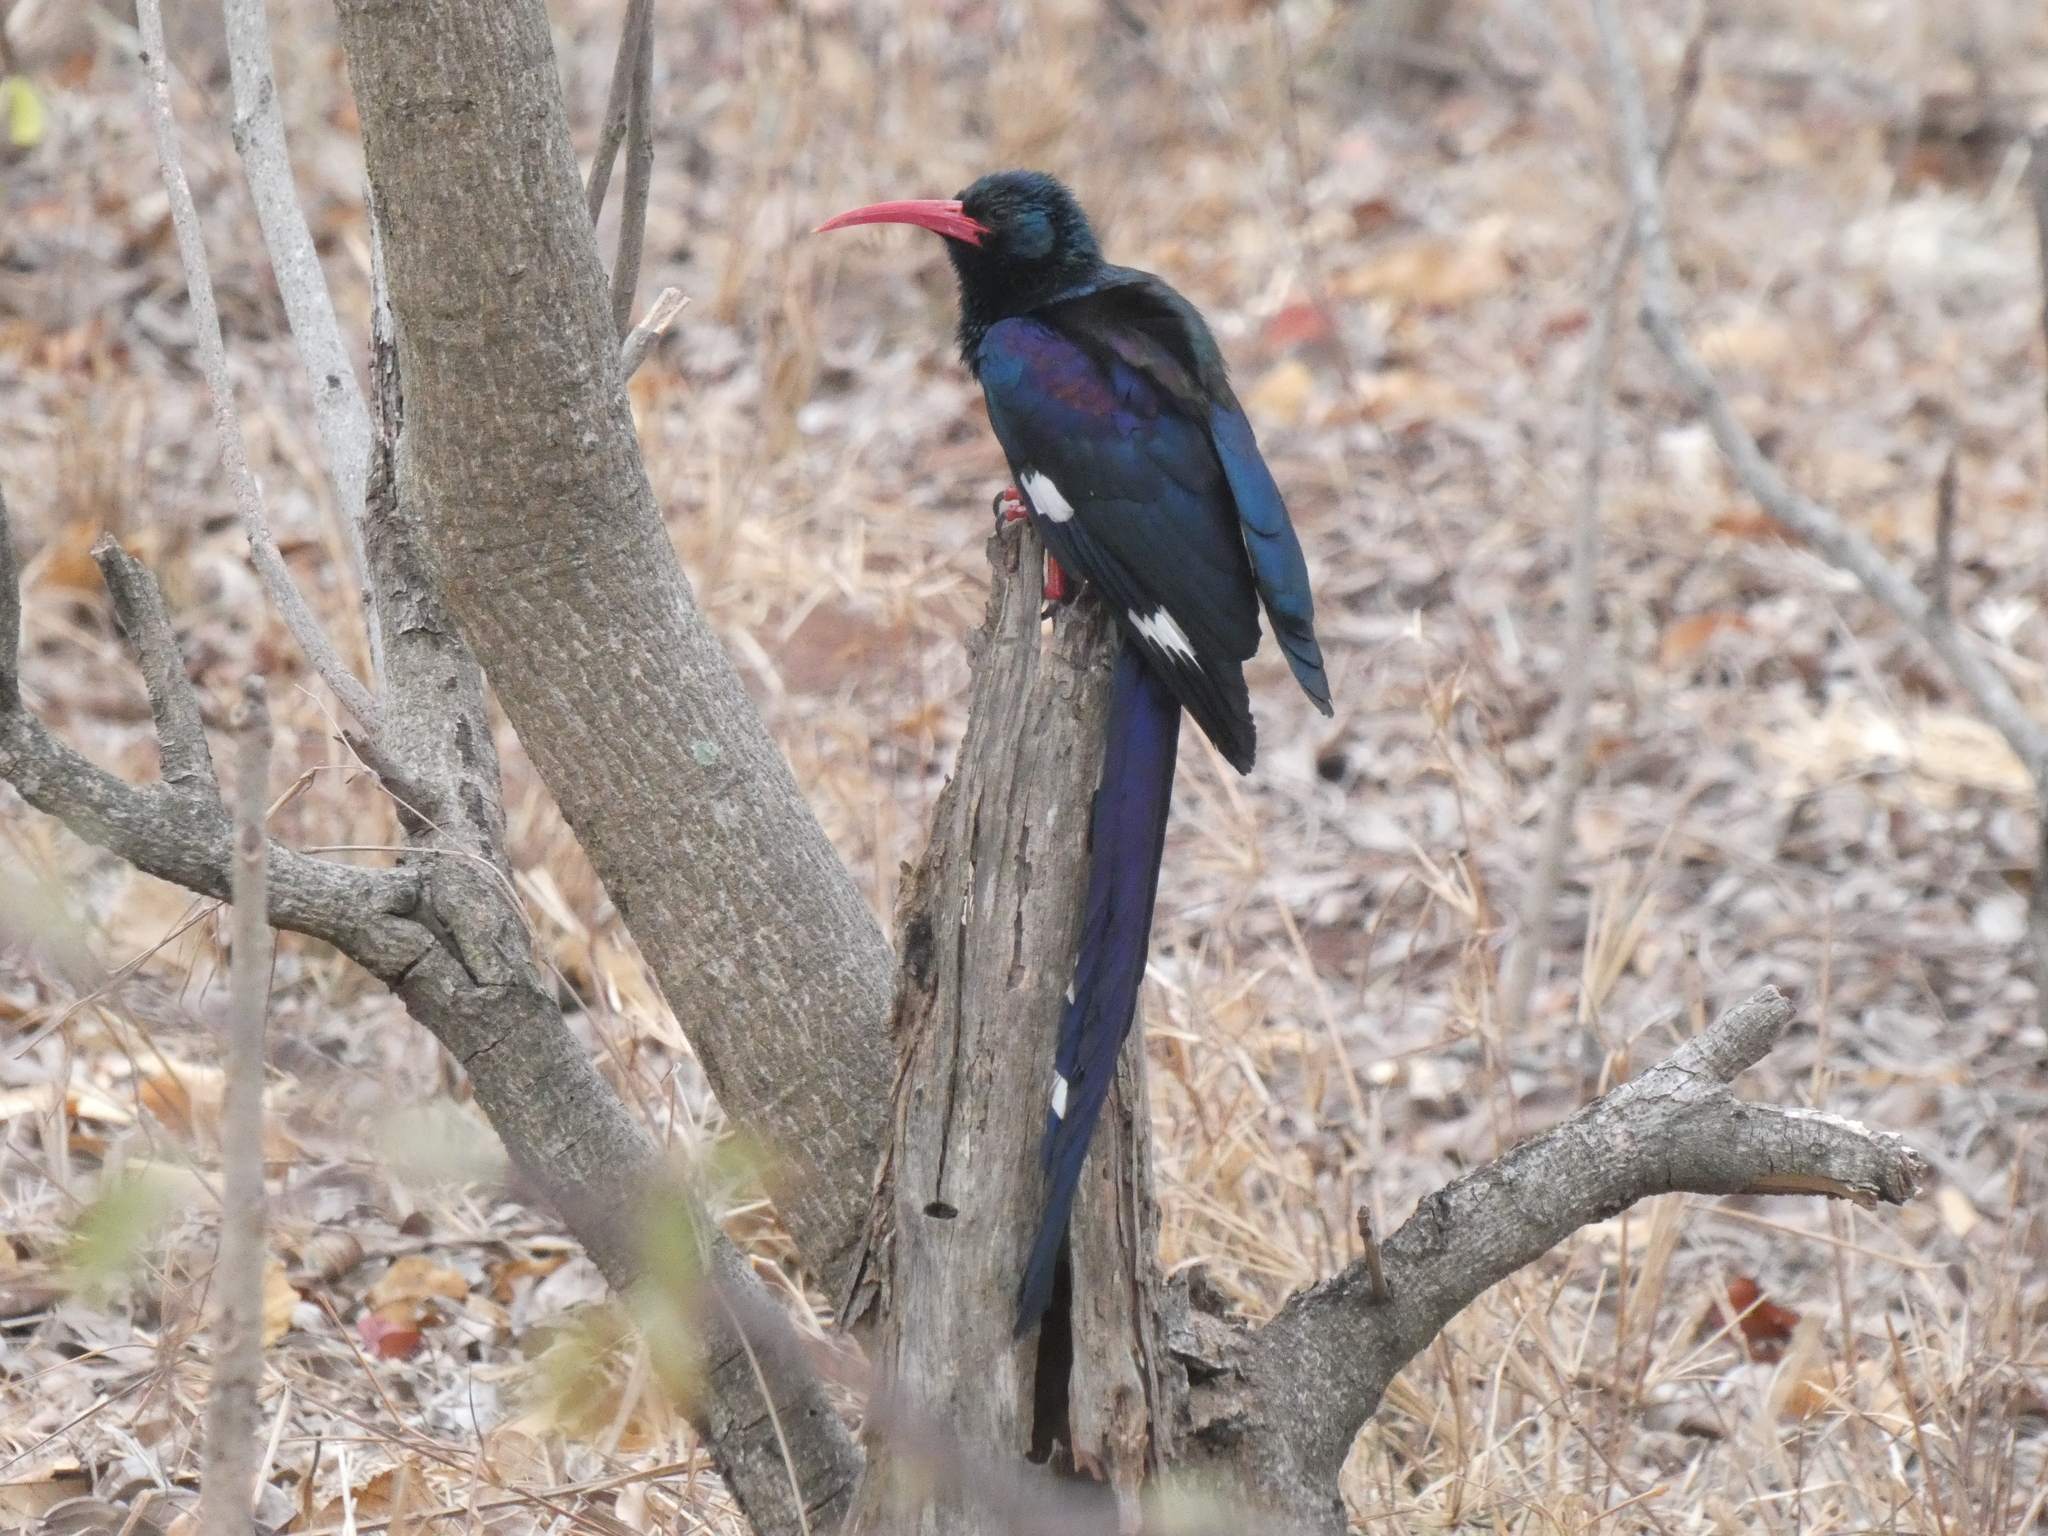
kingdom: Animalia
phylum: Chordata
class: Aves
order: Bucerotiformes
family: Phoeniculidae
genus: Phoeniculus
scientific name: Phoeniculus purpureus
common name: Green woodhoopoe
